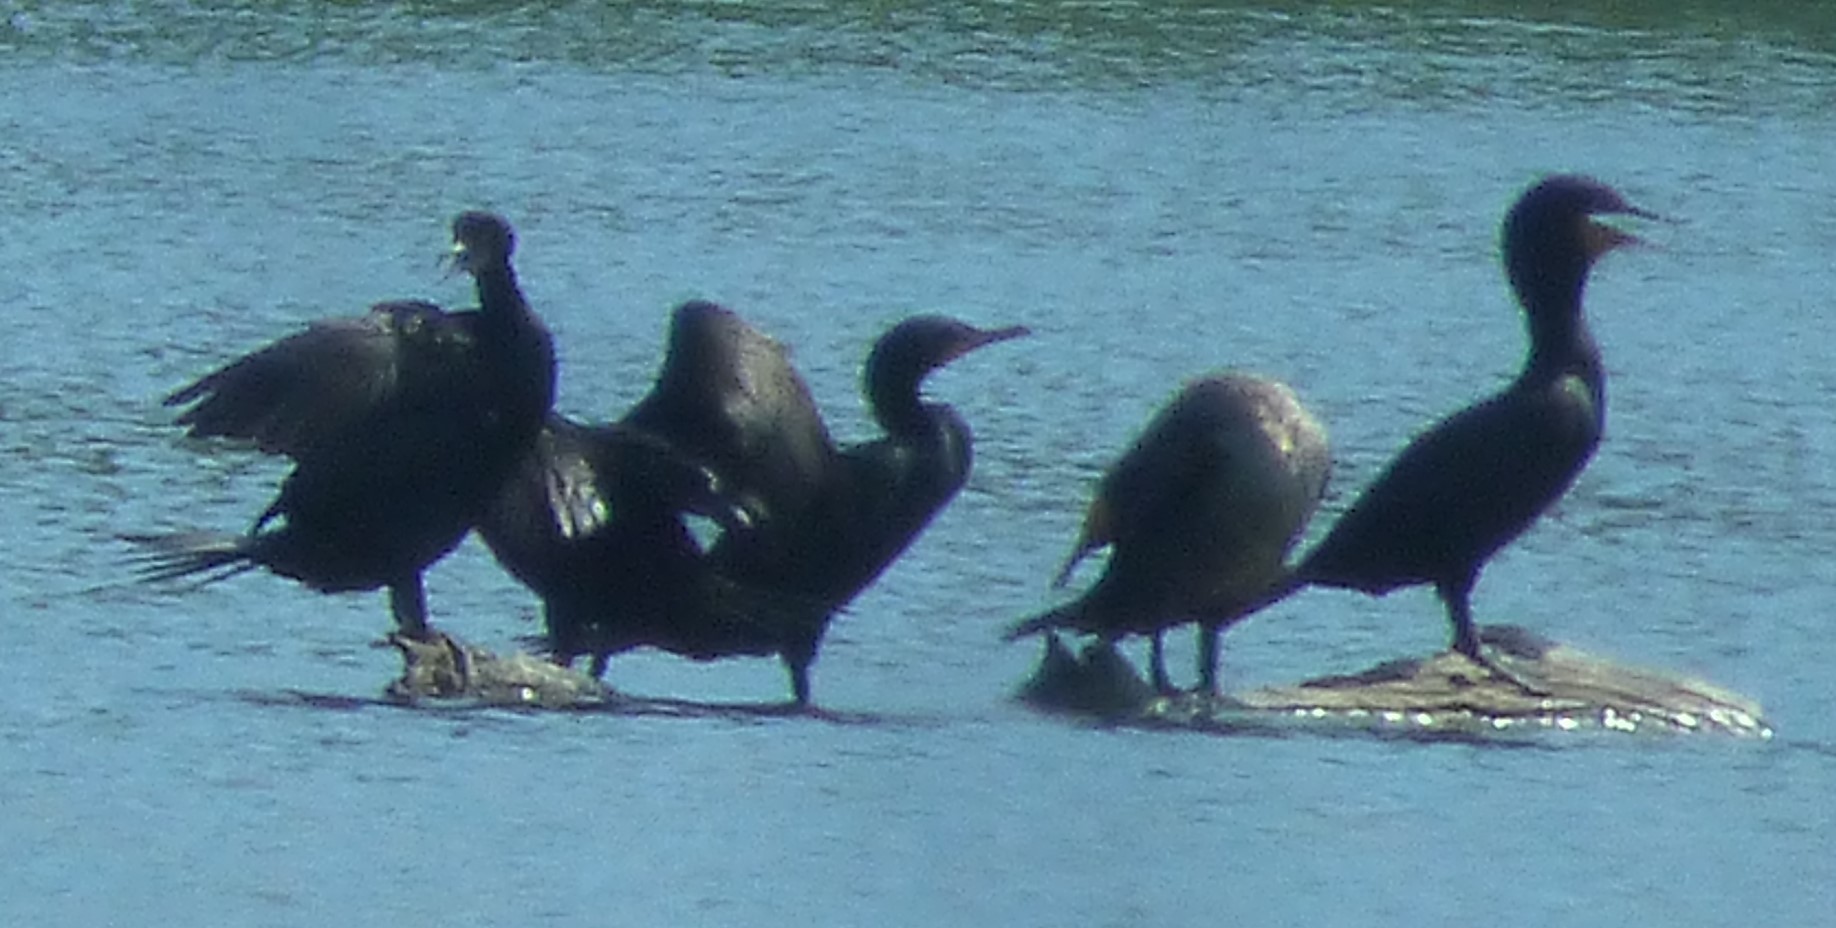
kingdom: Animalia
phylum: Chordata
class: Aves
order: Suliformes
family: Phalacrocoracidae
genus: Phalacrocorax
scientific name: Phalacrocorax auritus
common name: Double-crested cormorant
